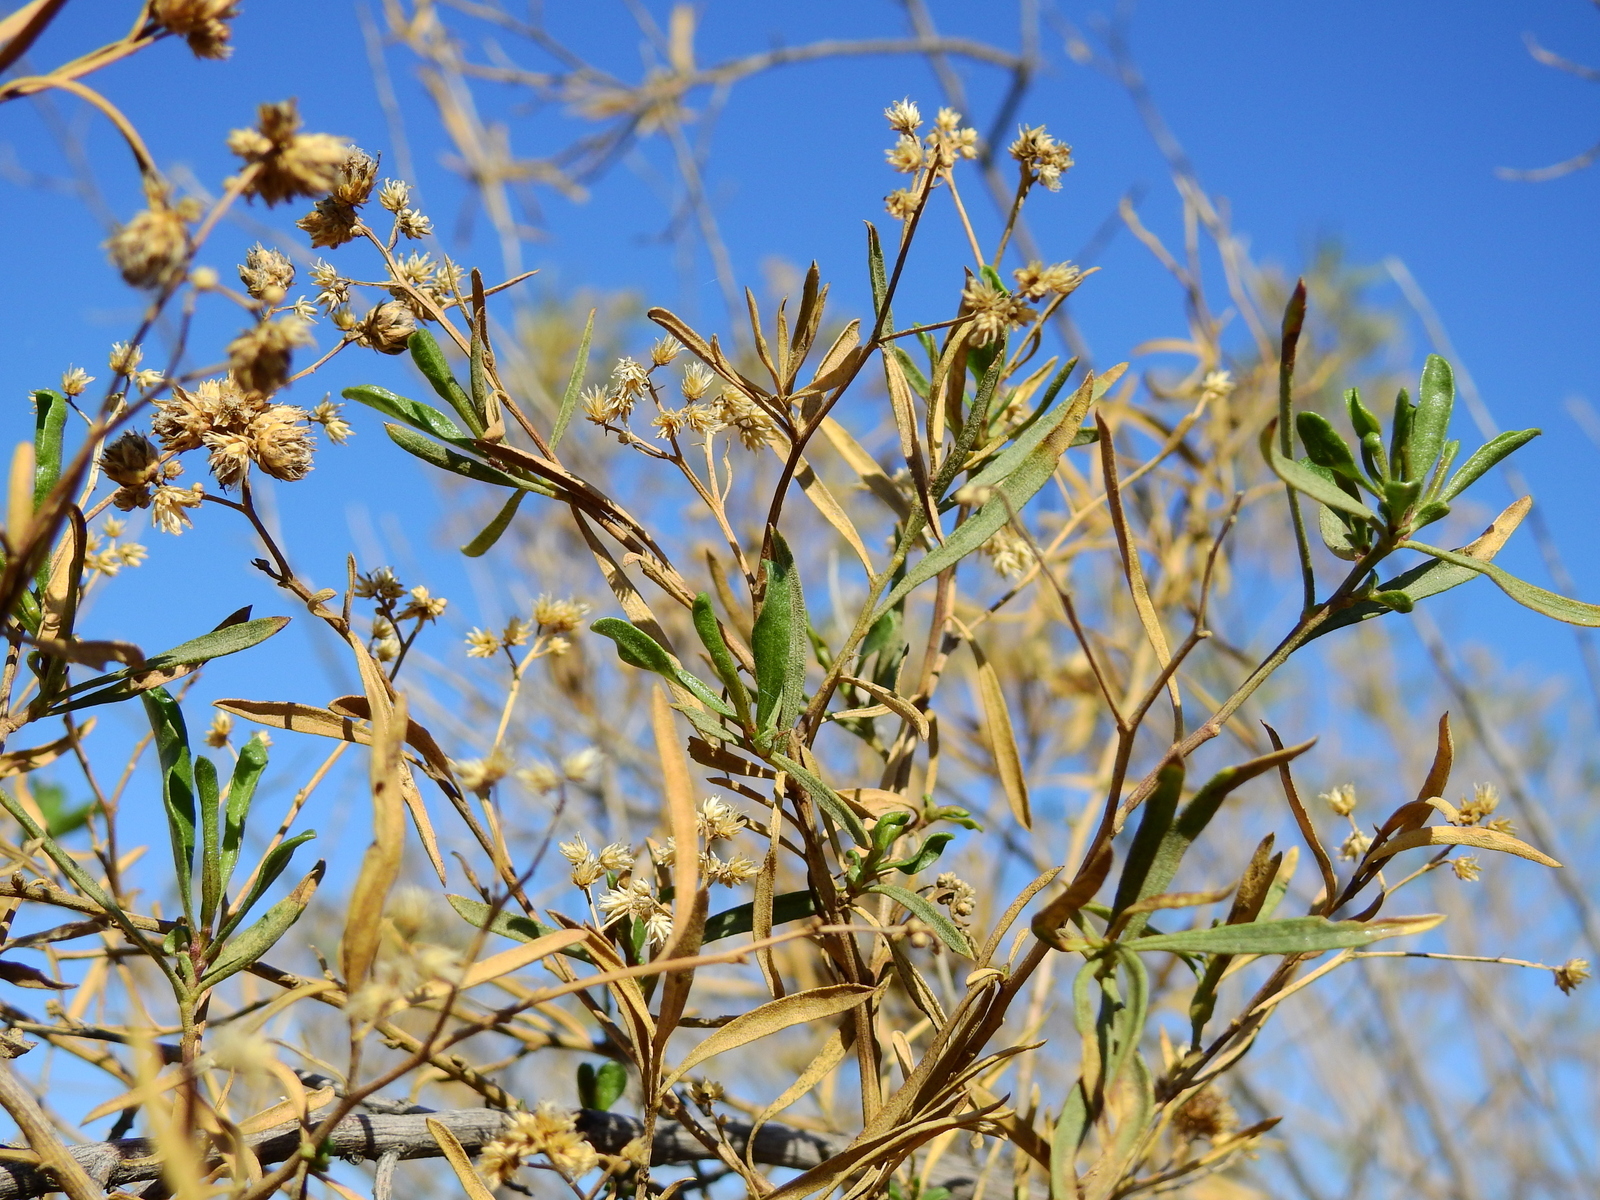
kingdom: Plantae
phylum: Tracheophyta
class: Magnoliopsida
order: Asterales
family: Asteraceae
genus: Baccharis
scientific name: Baccharis salicifolia
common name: Sticky baccharis
